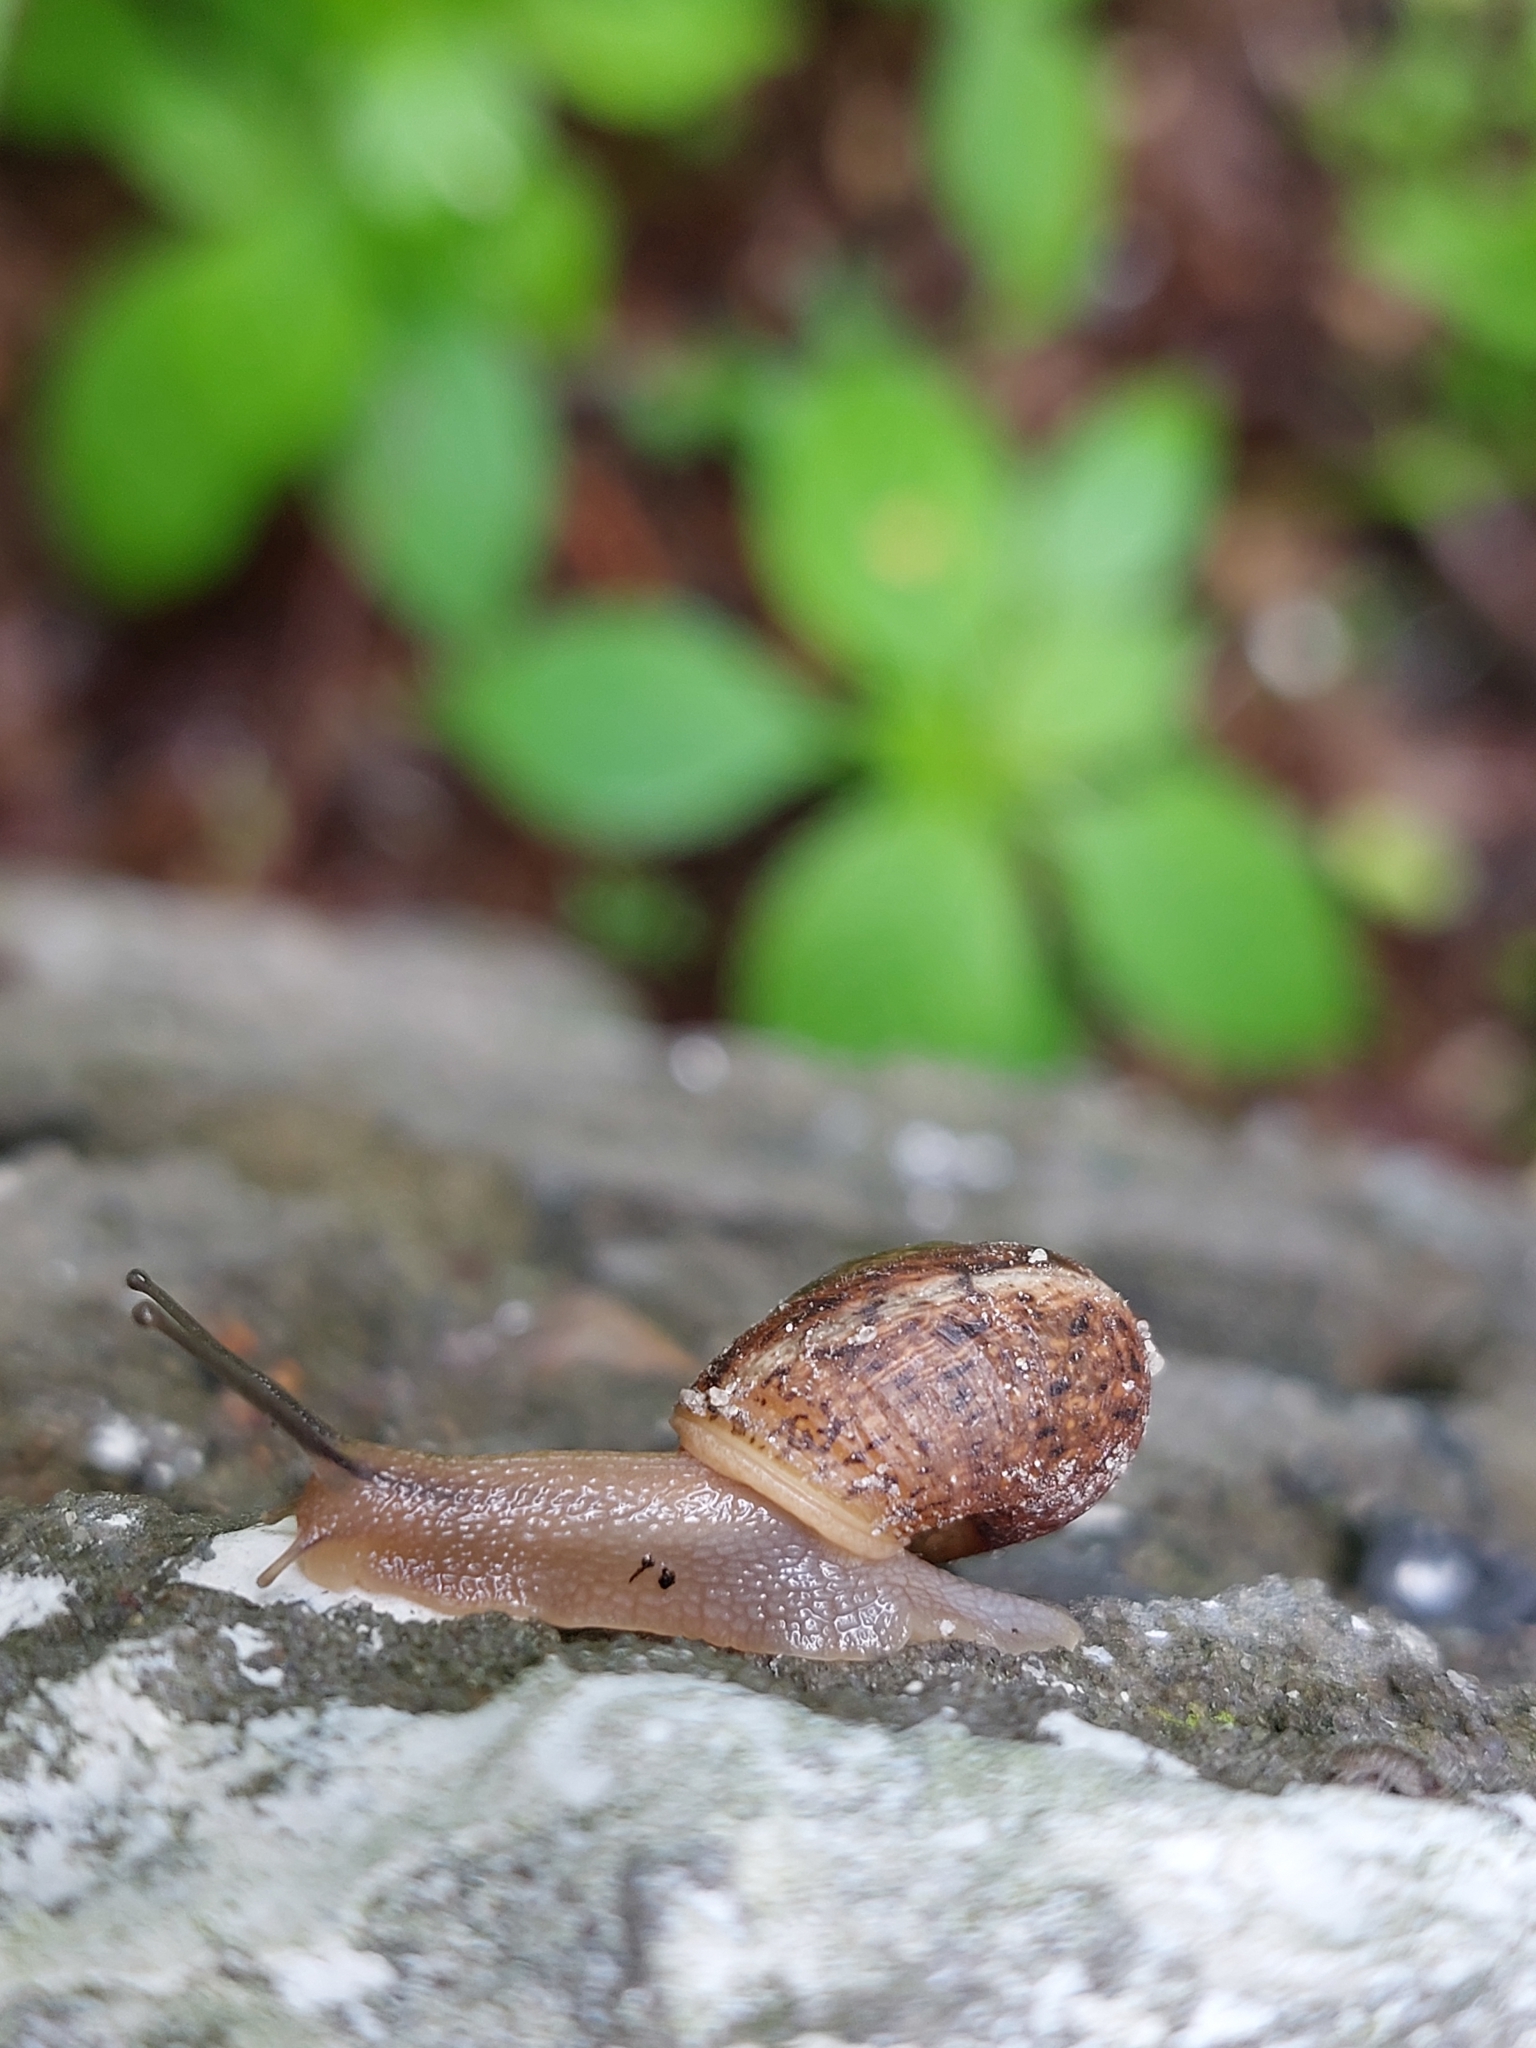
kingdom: Animalia
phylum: Mollusca
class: Gastropoda
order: Stylommatophora
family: Hygromiidae
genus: Euomphalia
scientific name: Euomphalia strigella
